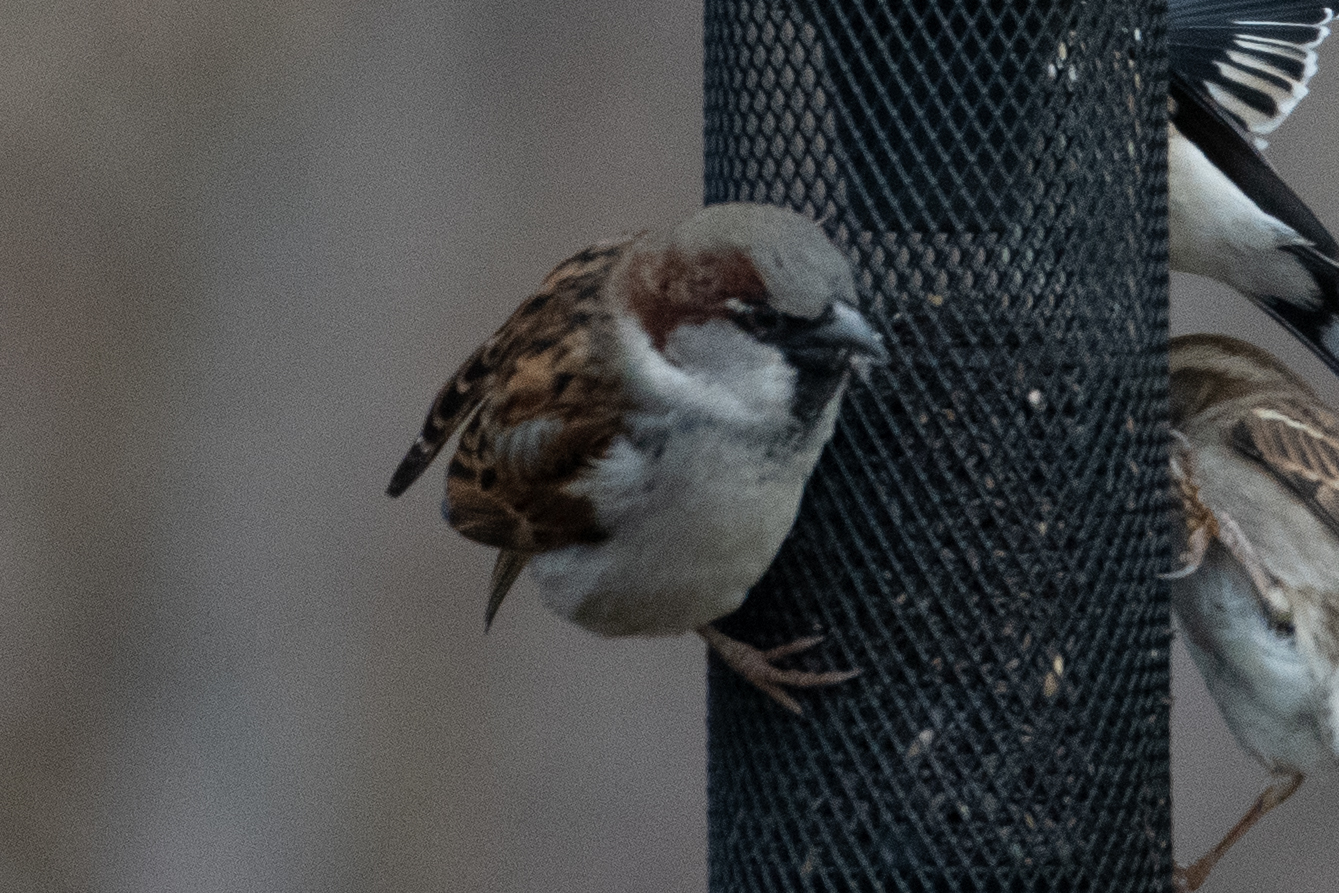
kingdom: Animalia
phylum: Chordata
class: Aves
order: Passeriformes
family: Passeridae
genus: Passer
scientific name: Passer domesticus
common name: House sparrow
